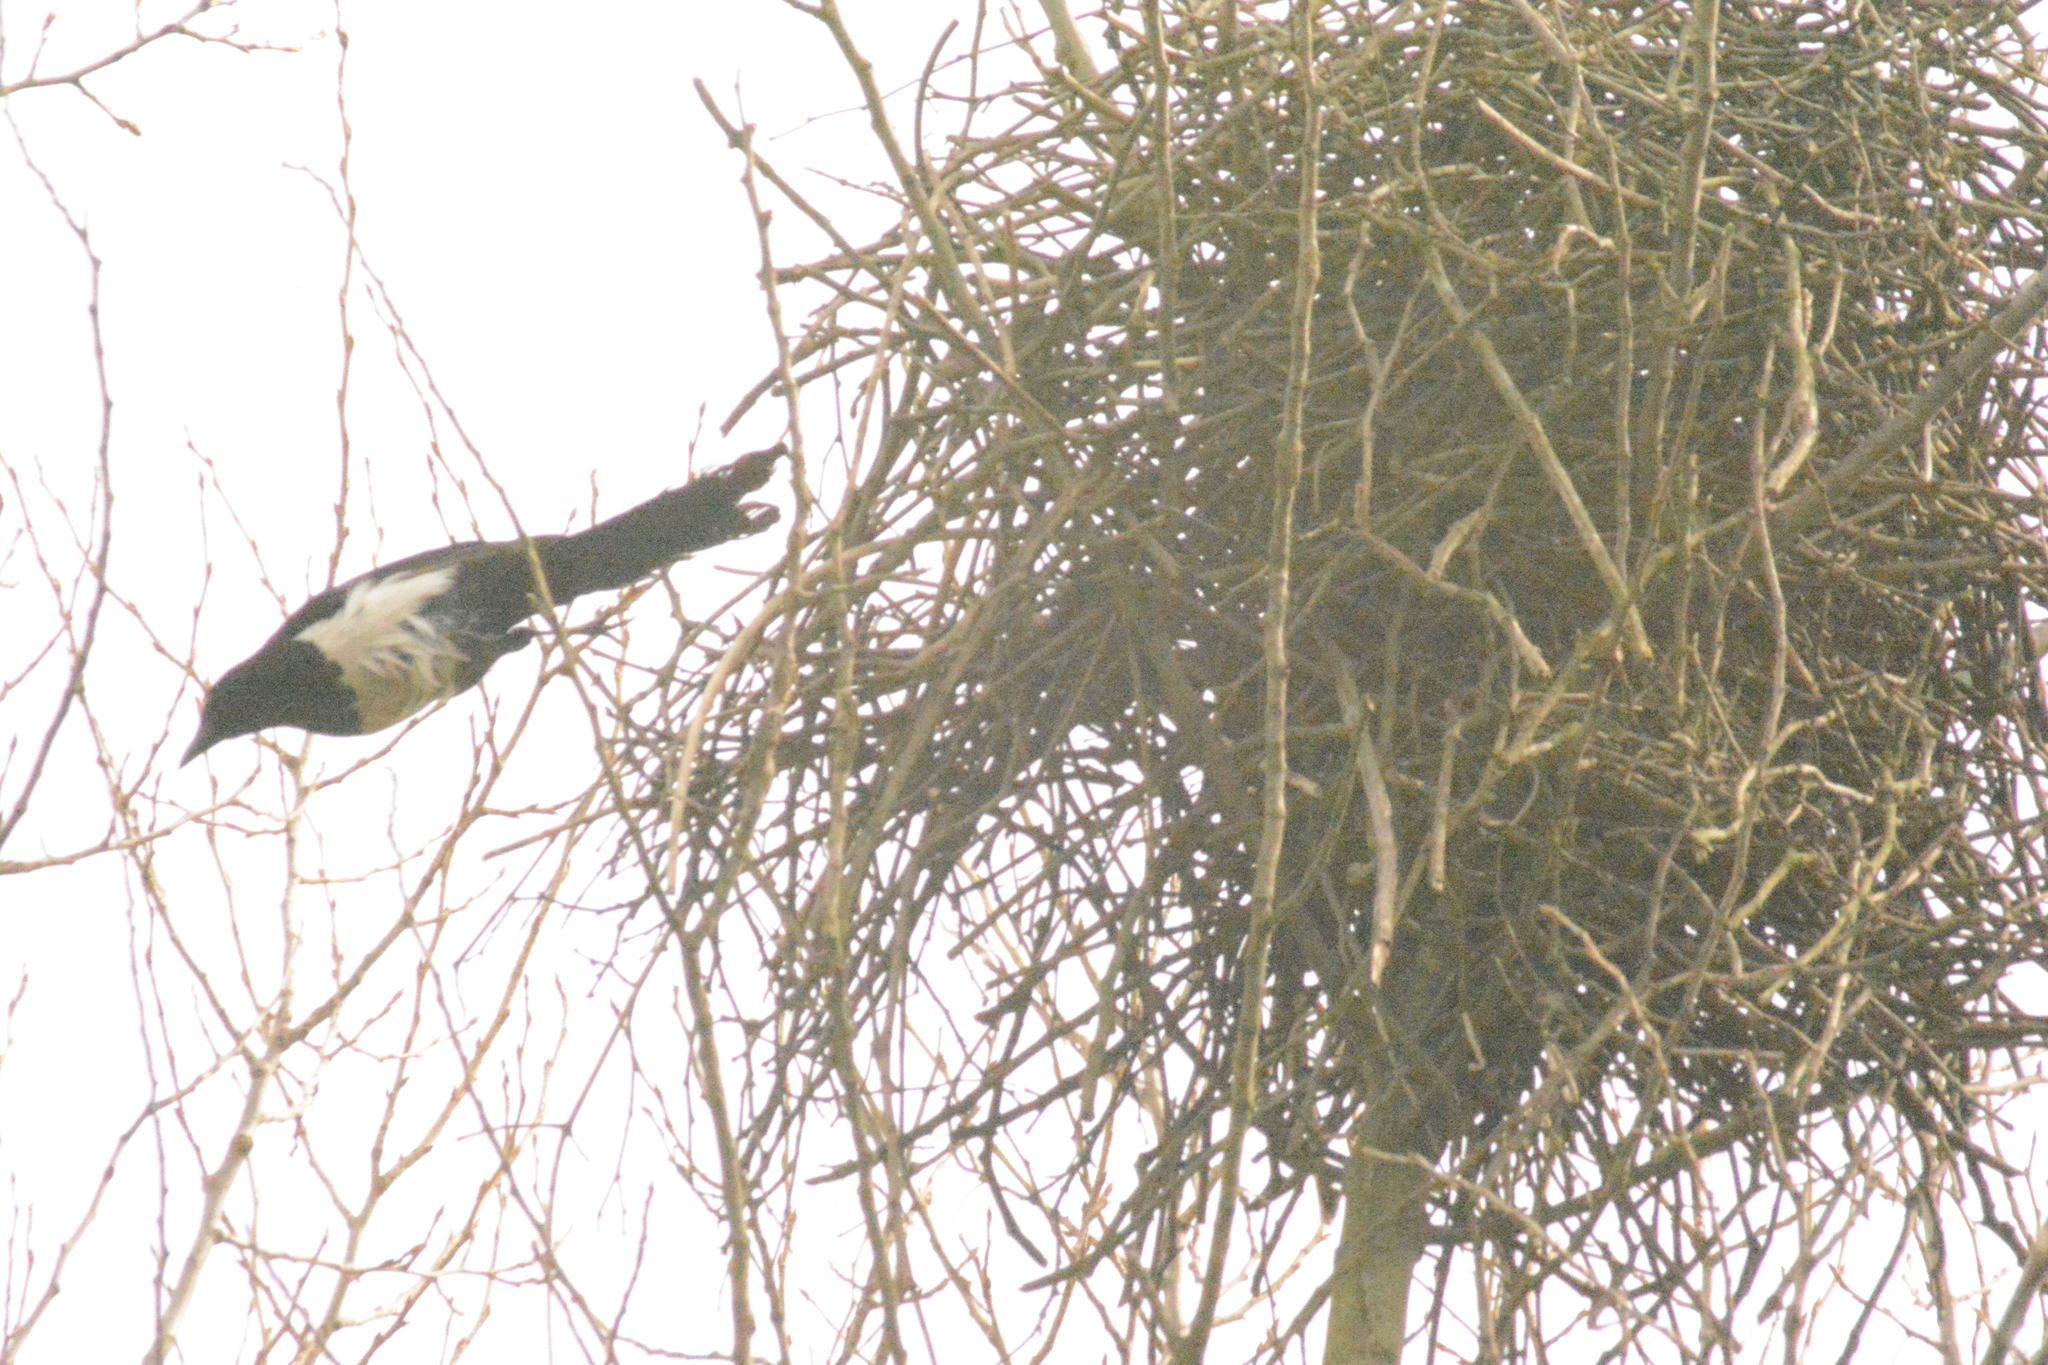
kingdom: Animalia
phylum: Chordata
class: Aves
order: Passeriformes
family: Corvidae
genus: Pica
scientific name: Pica pica
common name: Eurasian magpie
